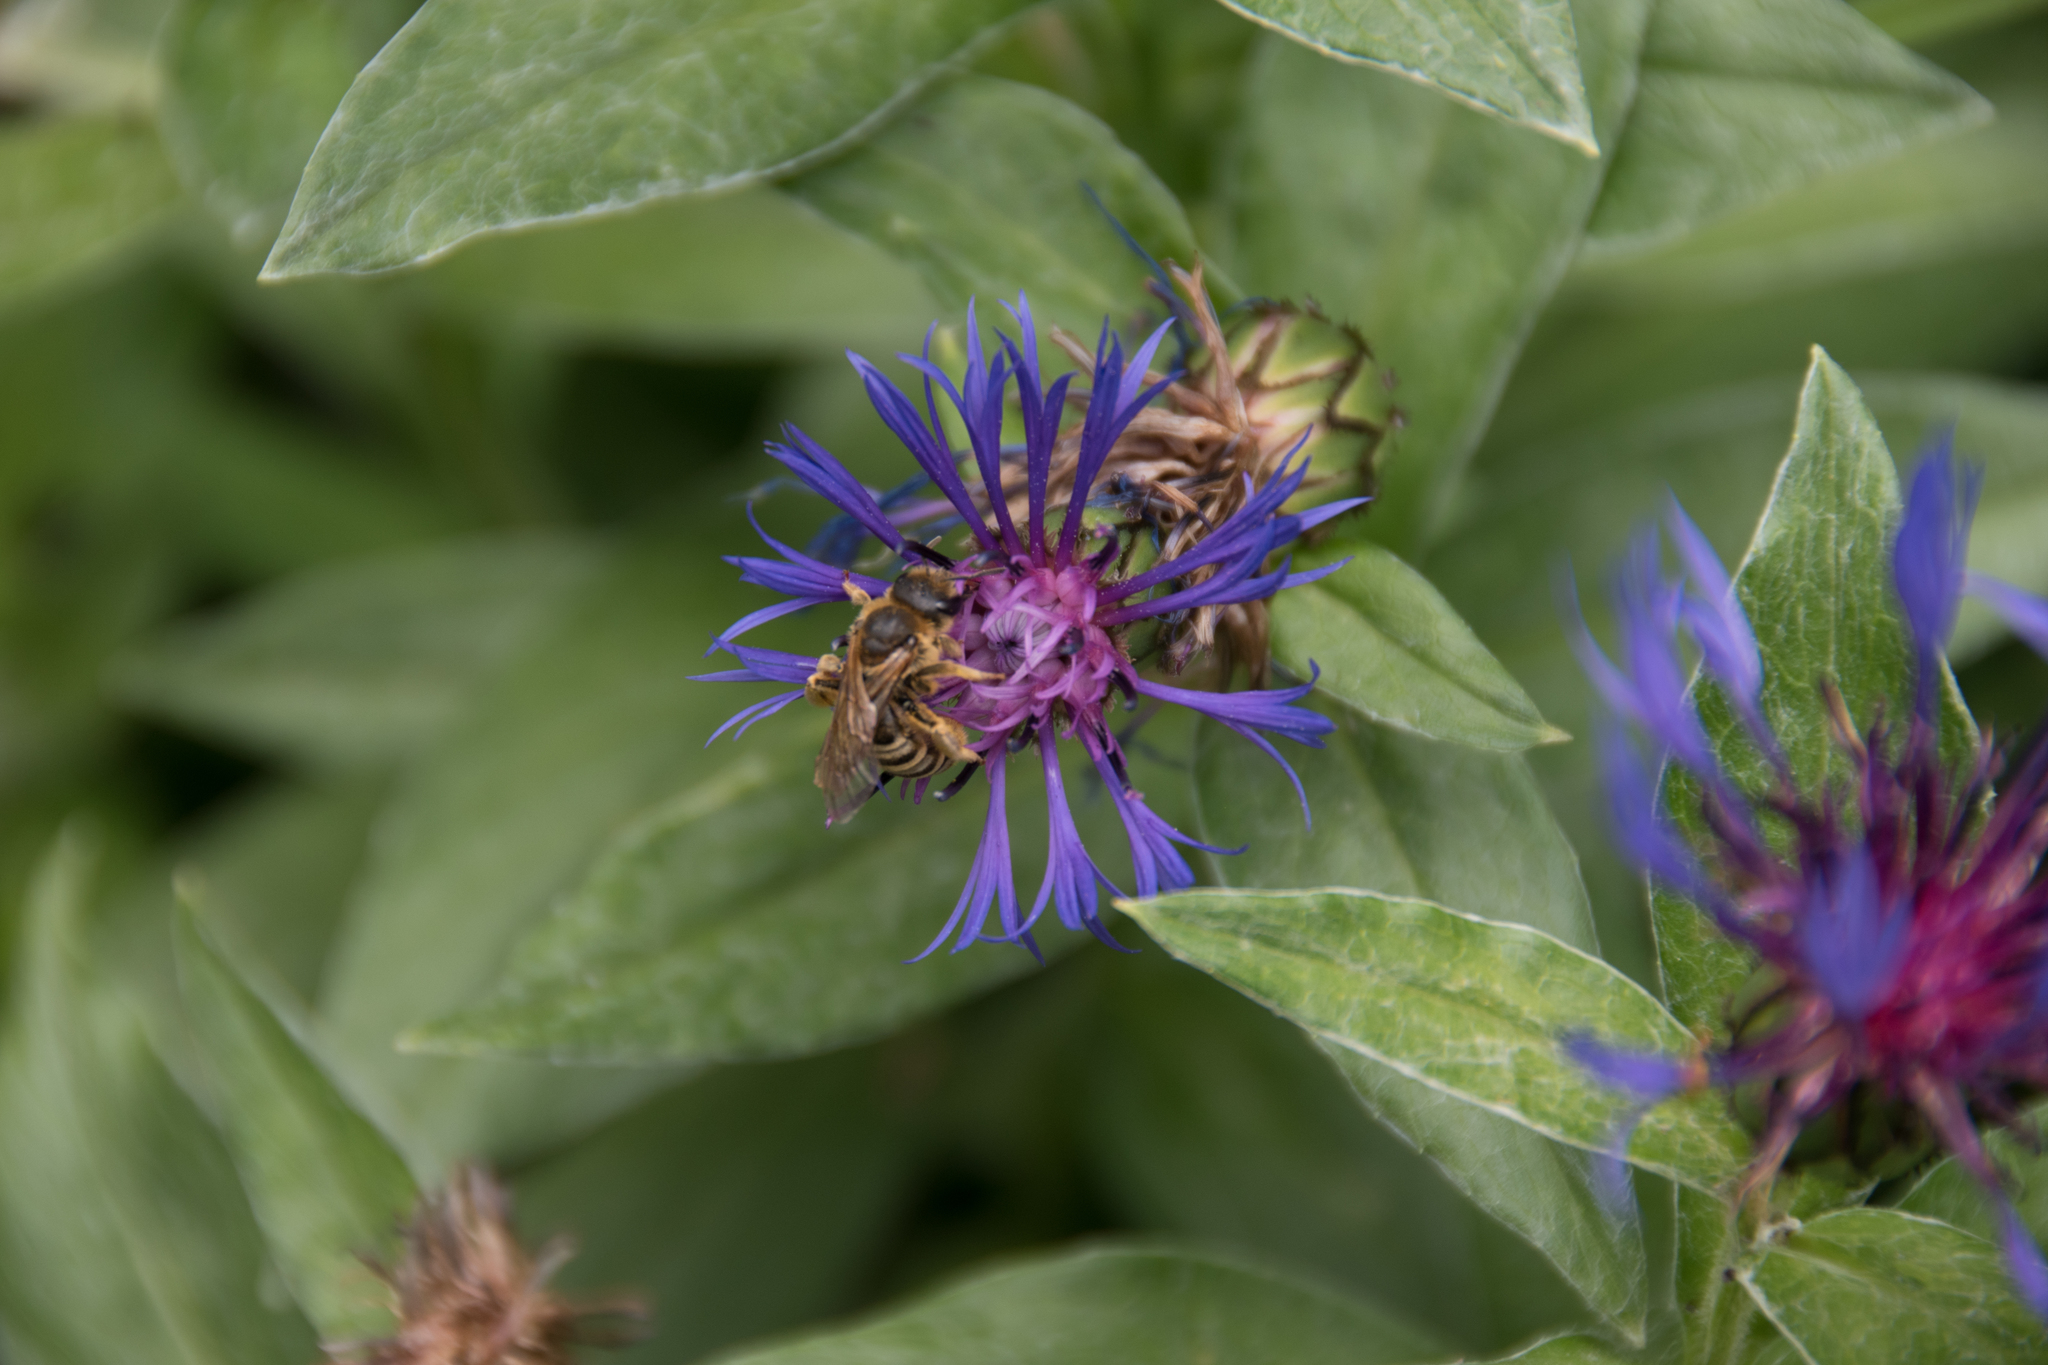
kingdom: Animalia
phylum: Arthropoda
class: Insecta
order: Hymenoptera
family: Halictidae
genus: Halictus
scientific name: Halictus scabiosae
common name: Great banded furrow bee
